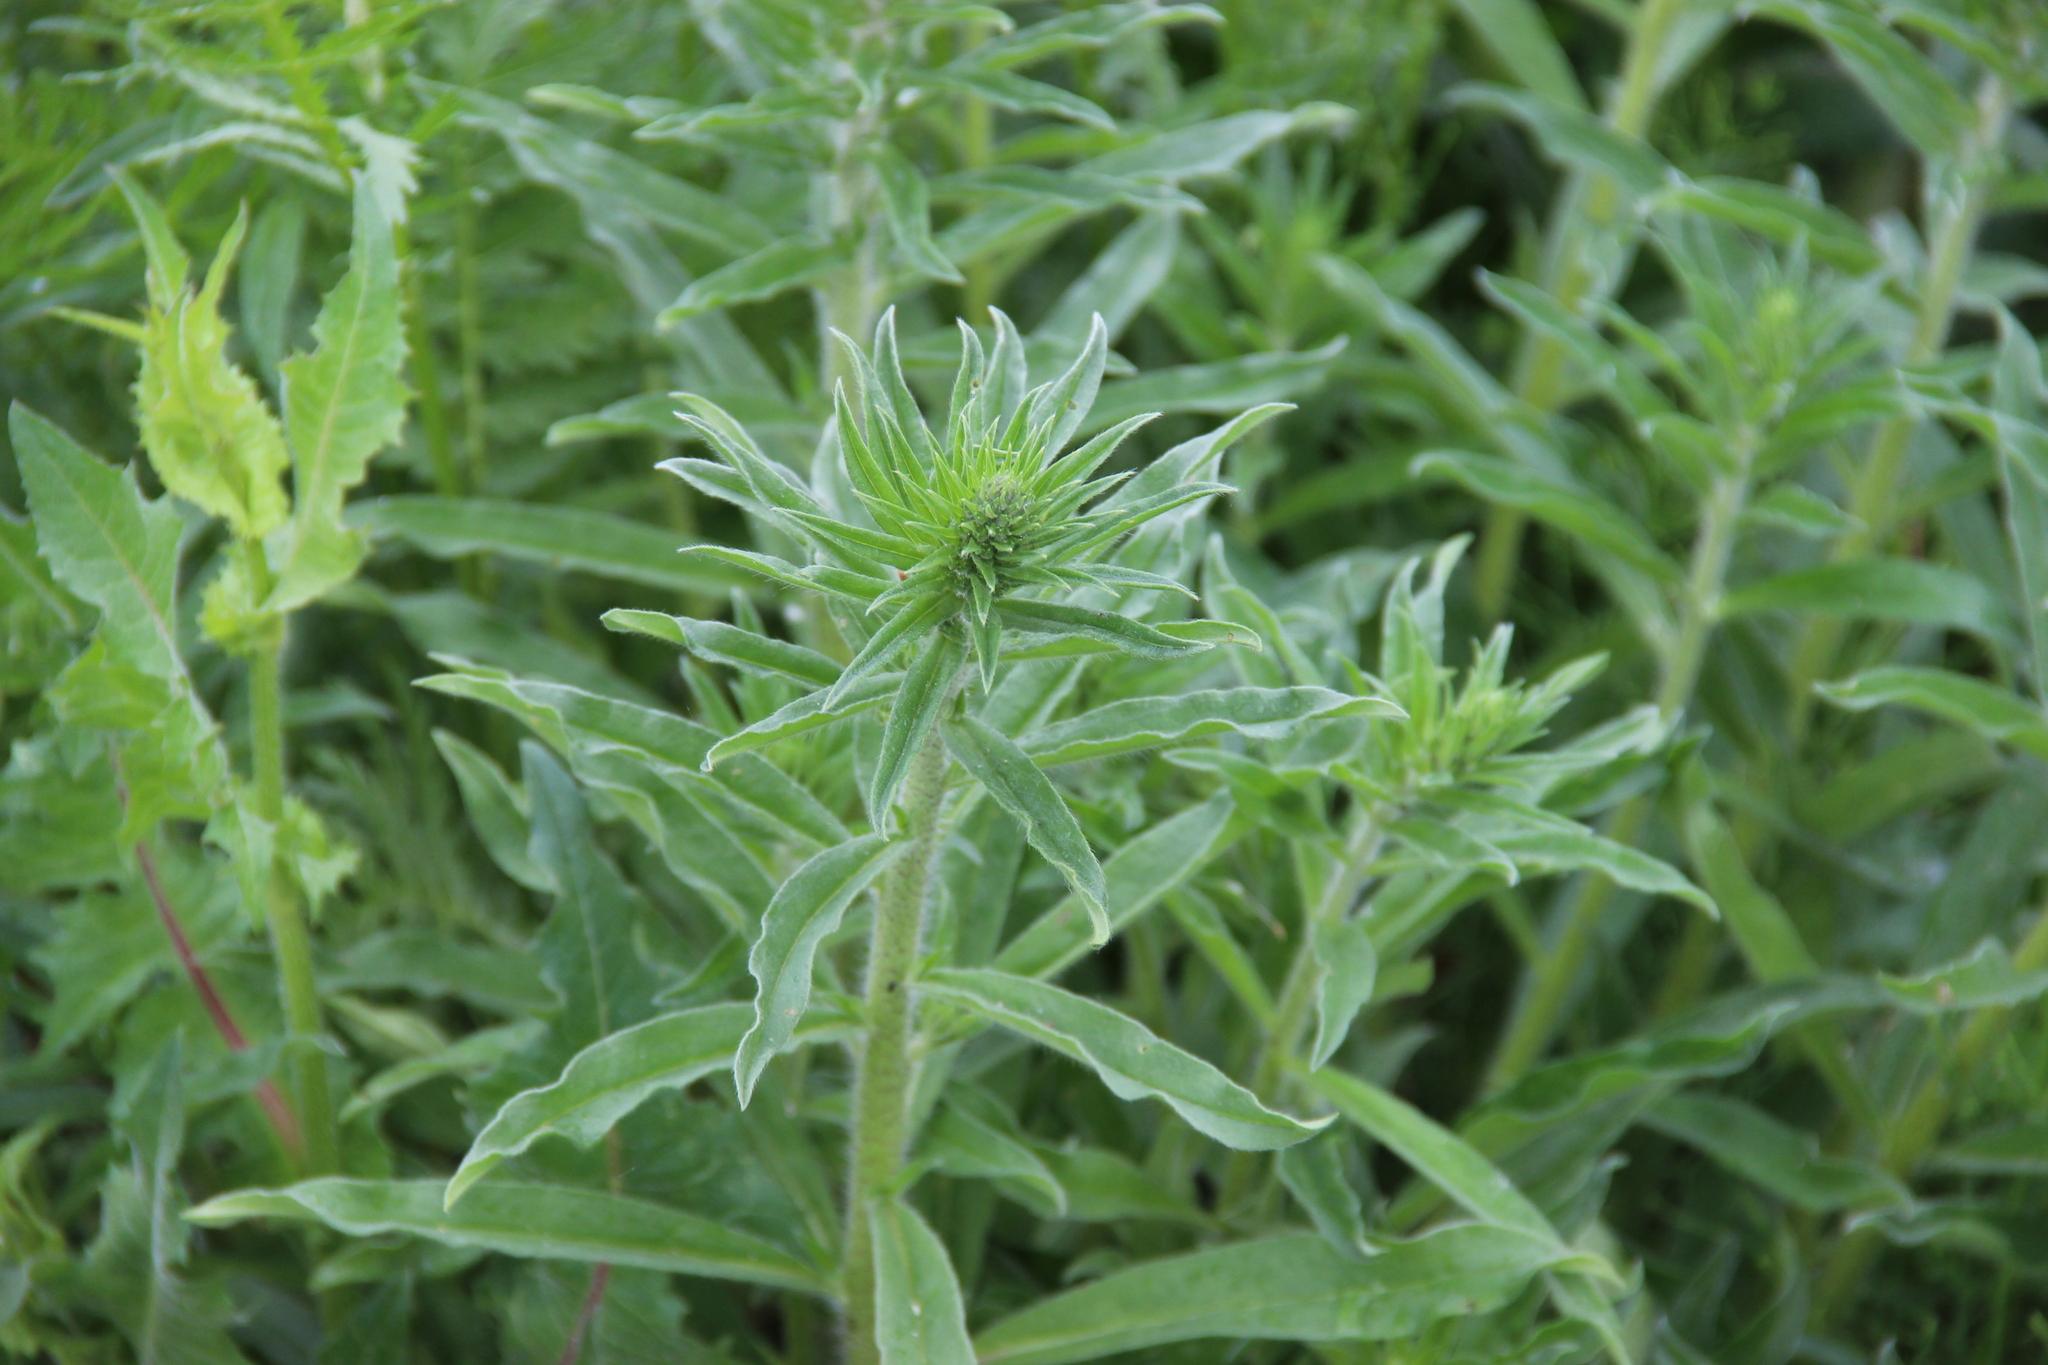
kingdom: Plantae
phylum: Tracheophyta
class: Magnoliopsida
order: Boraginales
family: Boraginaceae
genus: Echium
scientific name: Echium vulgare
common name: Common viper's bugloss
